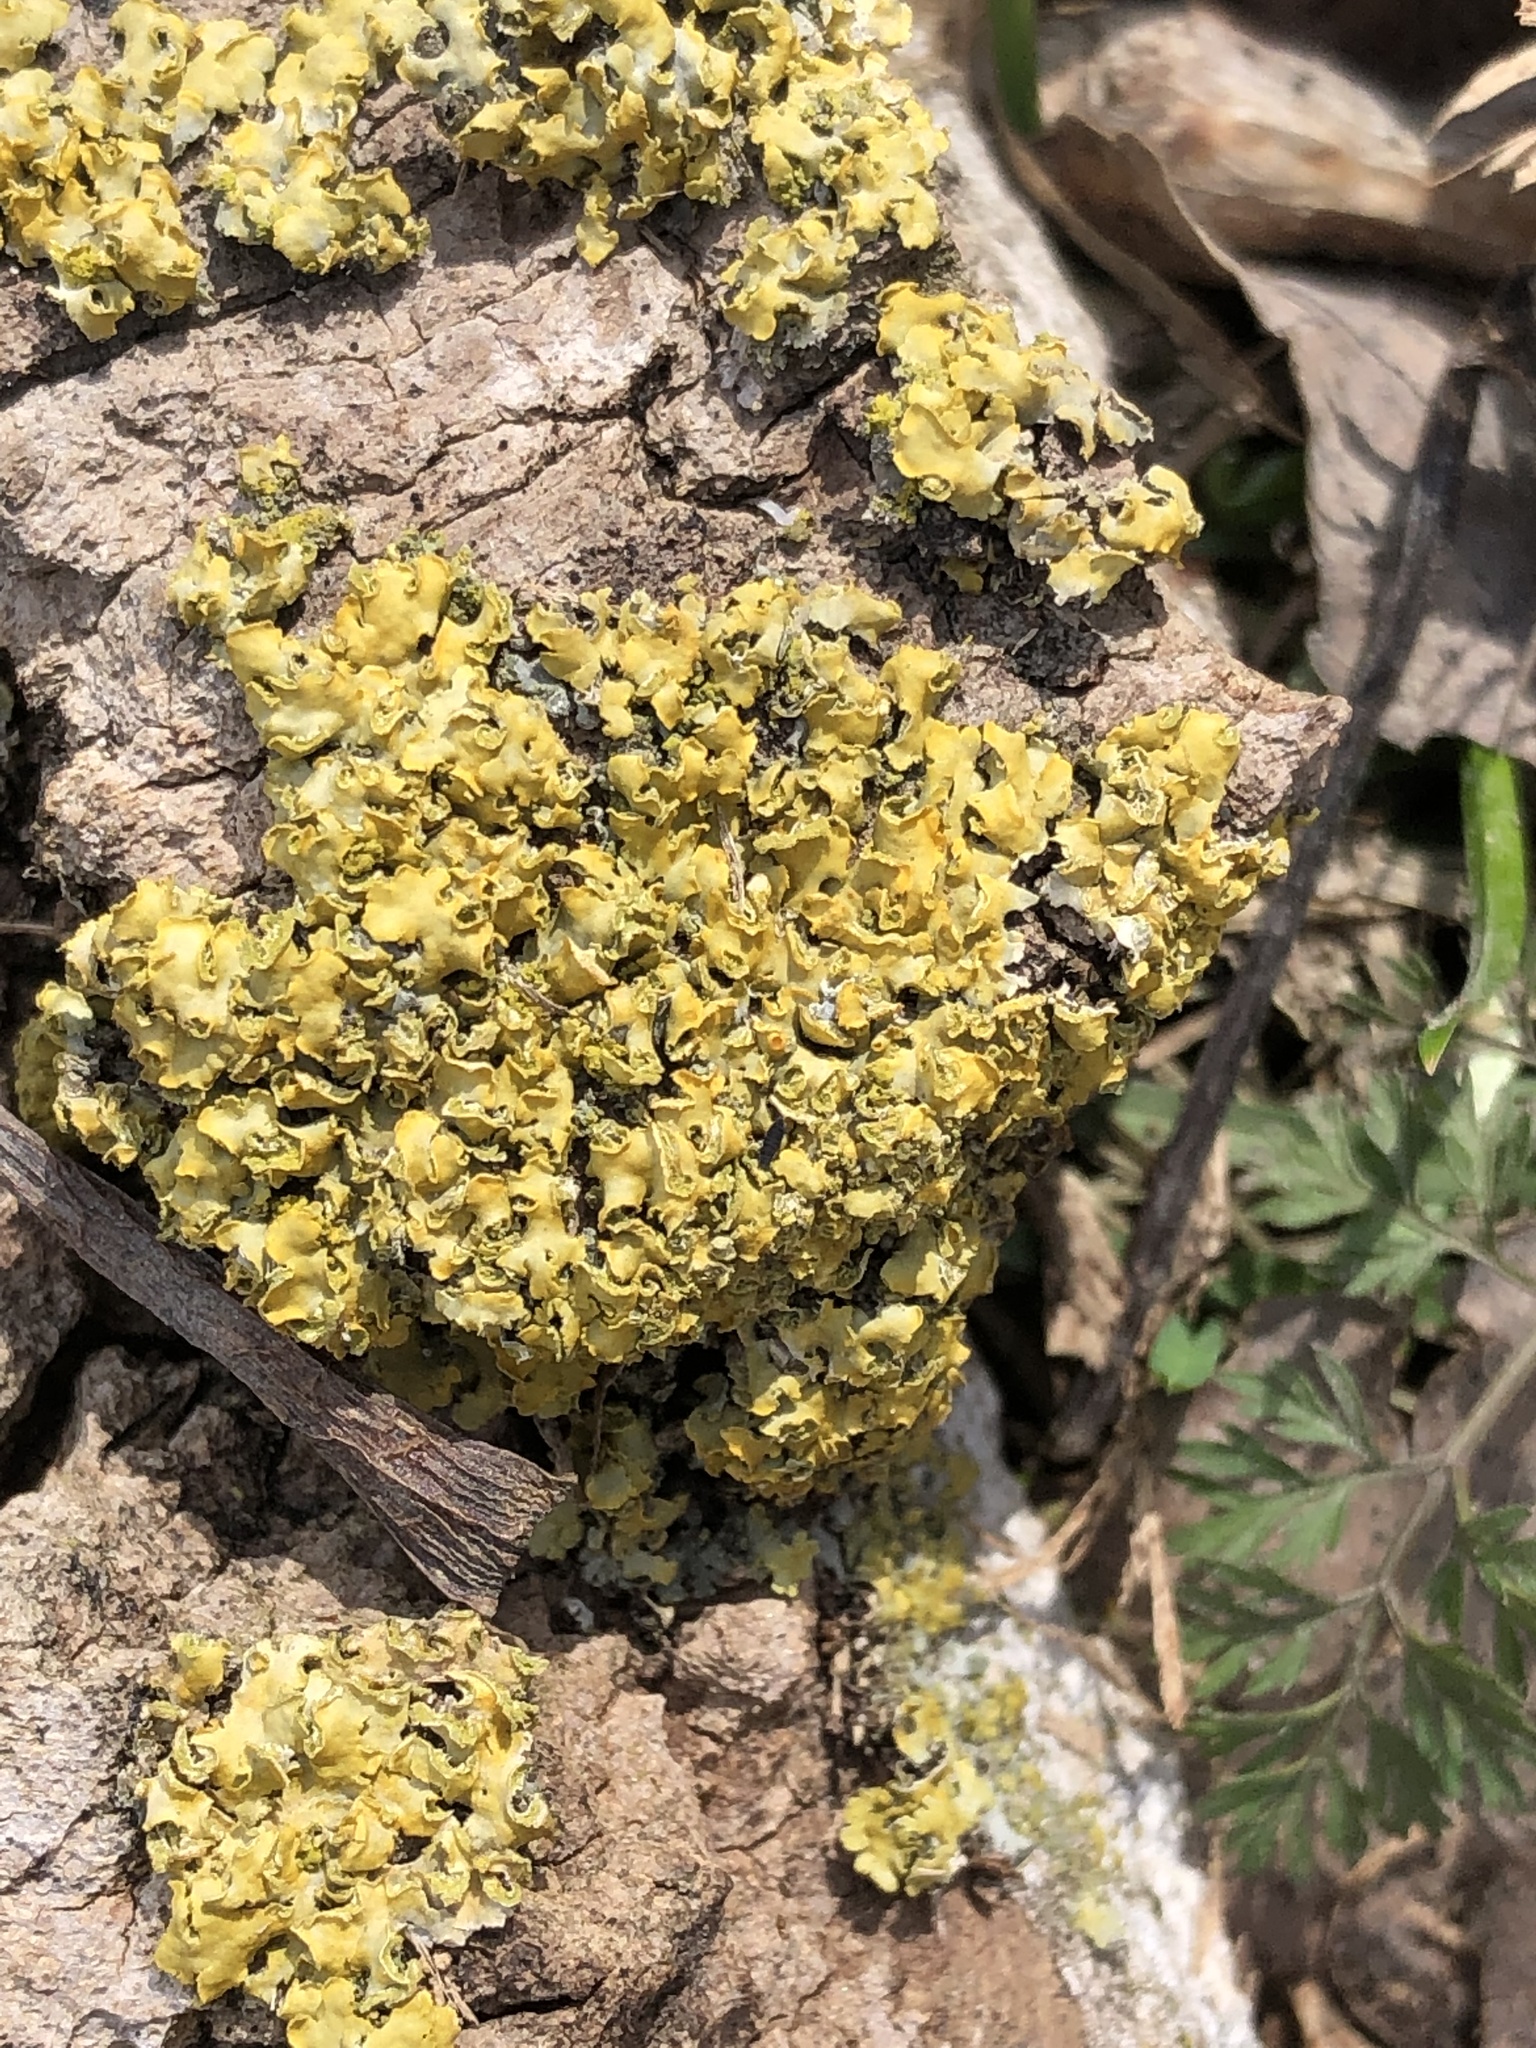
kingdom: Fungi
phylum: Ascomycota
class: Lecanoromycetes
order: Teloschistales
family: Teloschistaceae
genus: Oxneria
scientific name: Oxneria fallax
